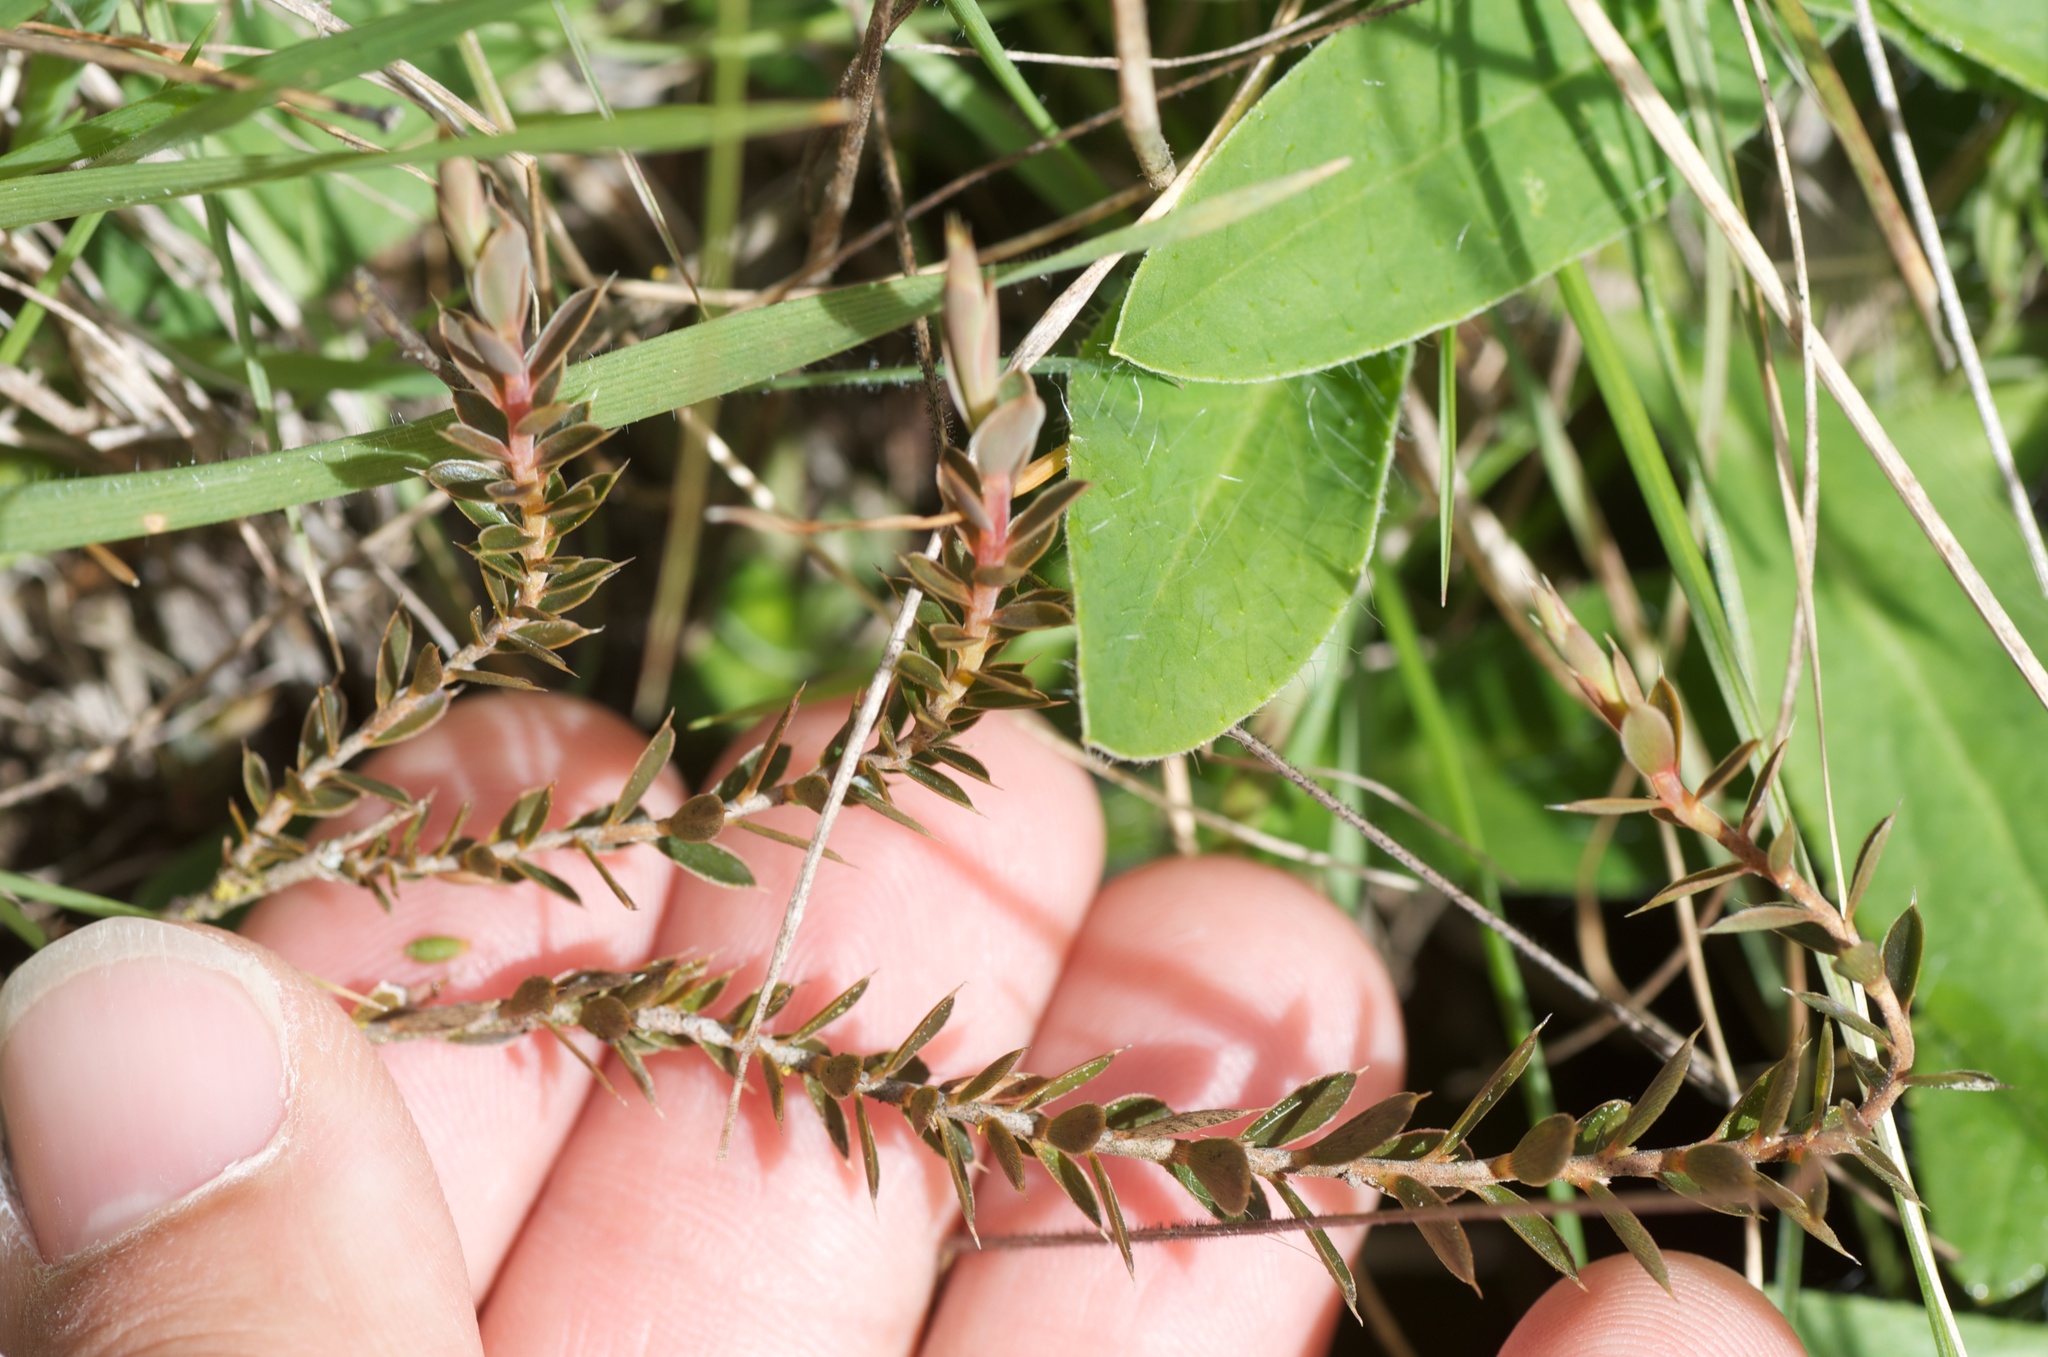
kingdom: Plantae
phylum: Tracheophyta
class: Magnoliopsida
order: Ericales
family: Ericaceae
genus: Styphelia
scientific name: Styphelia nesophila
